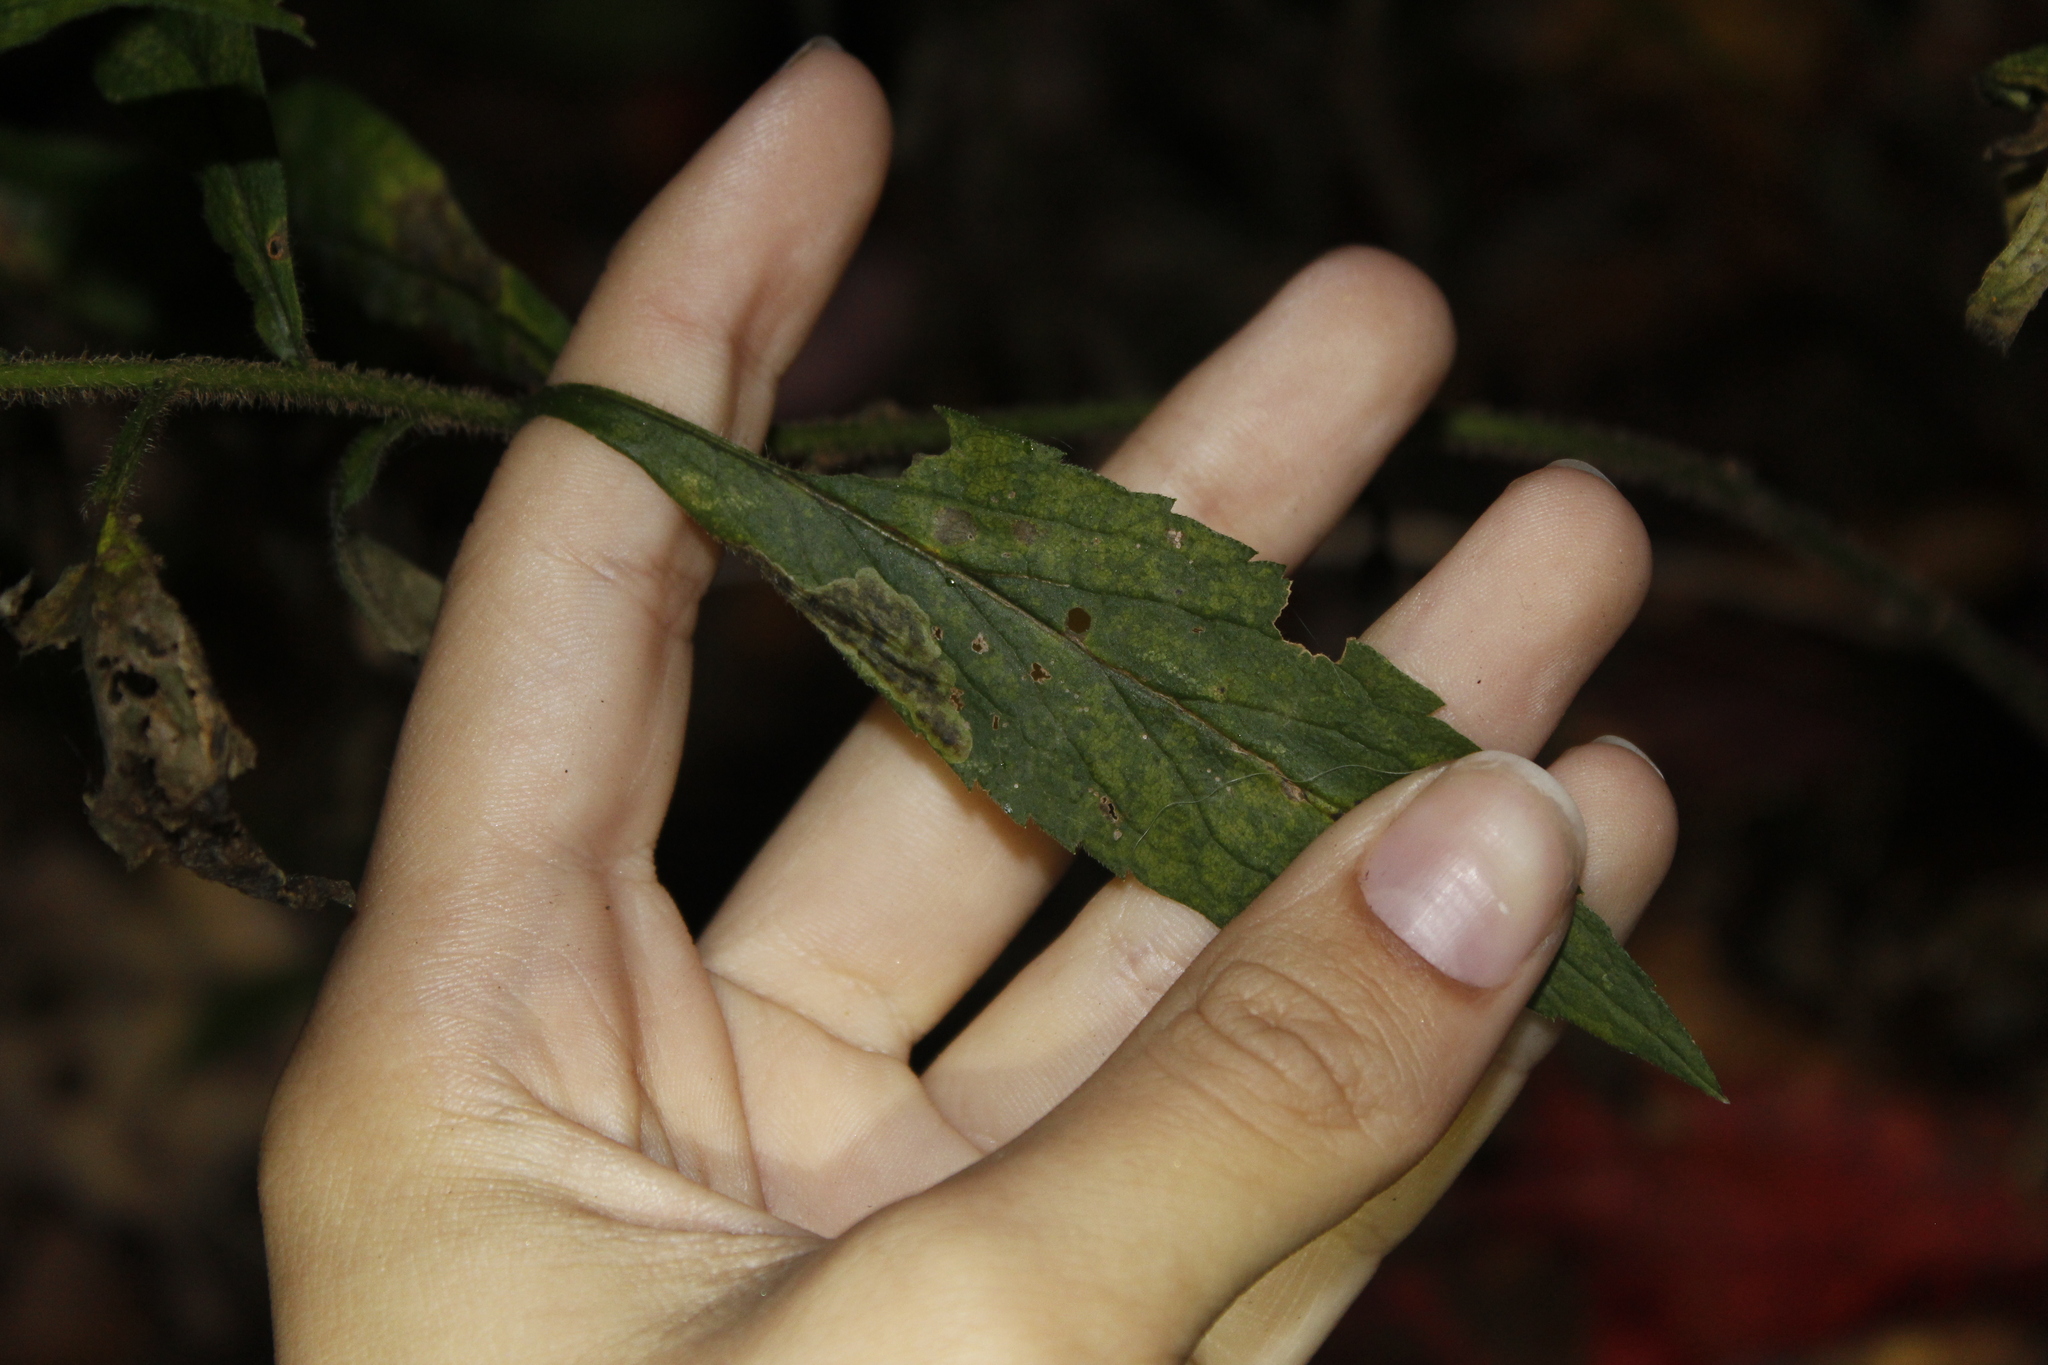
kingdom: Animalia
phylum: Arthropoda
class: Insecta
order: Diptera
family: Agromyzidae
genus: Nemorimyza
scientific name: Nemorimyza posticata
